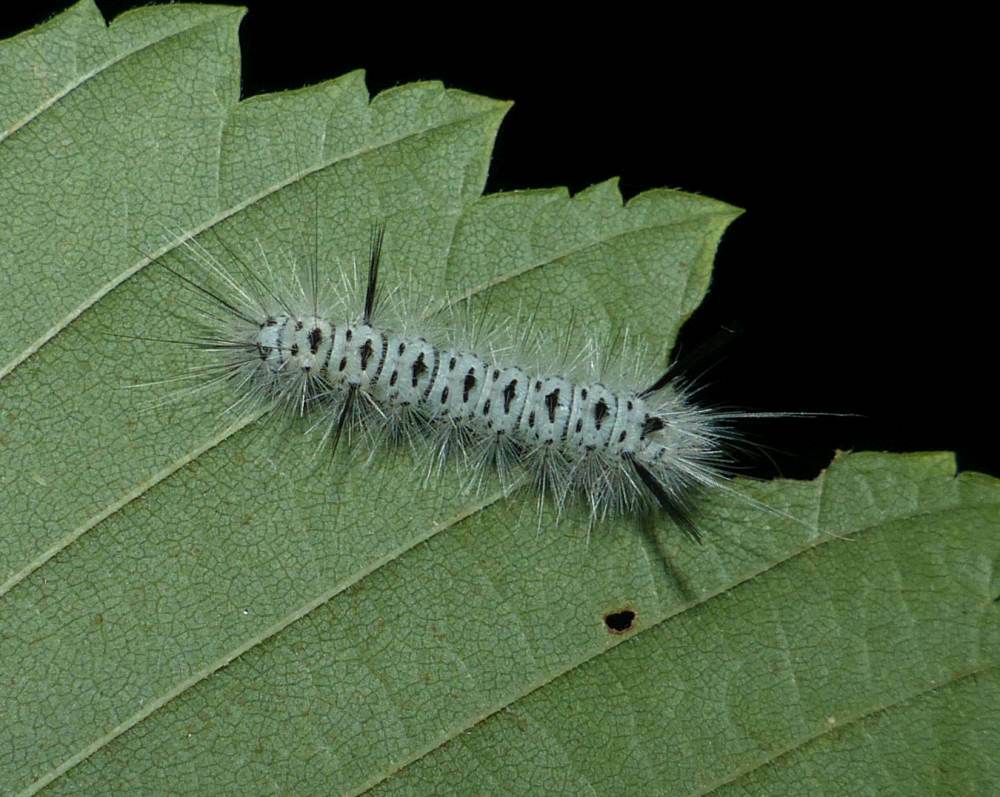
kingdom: Animalia
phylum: Arthropoda
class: Insecta
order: Lepidoptera
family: Erebidae
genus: Lophocampa
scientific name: Lophocampa caryae
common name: Hickory tussock moth
